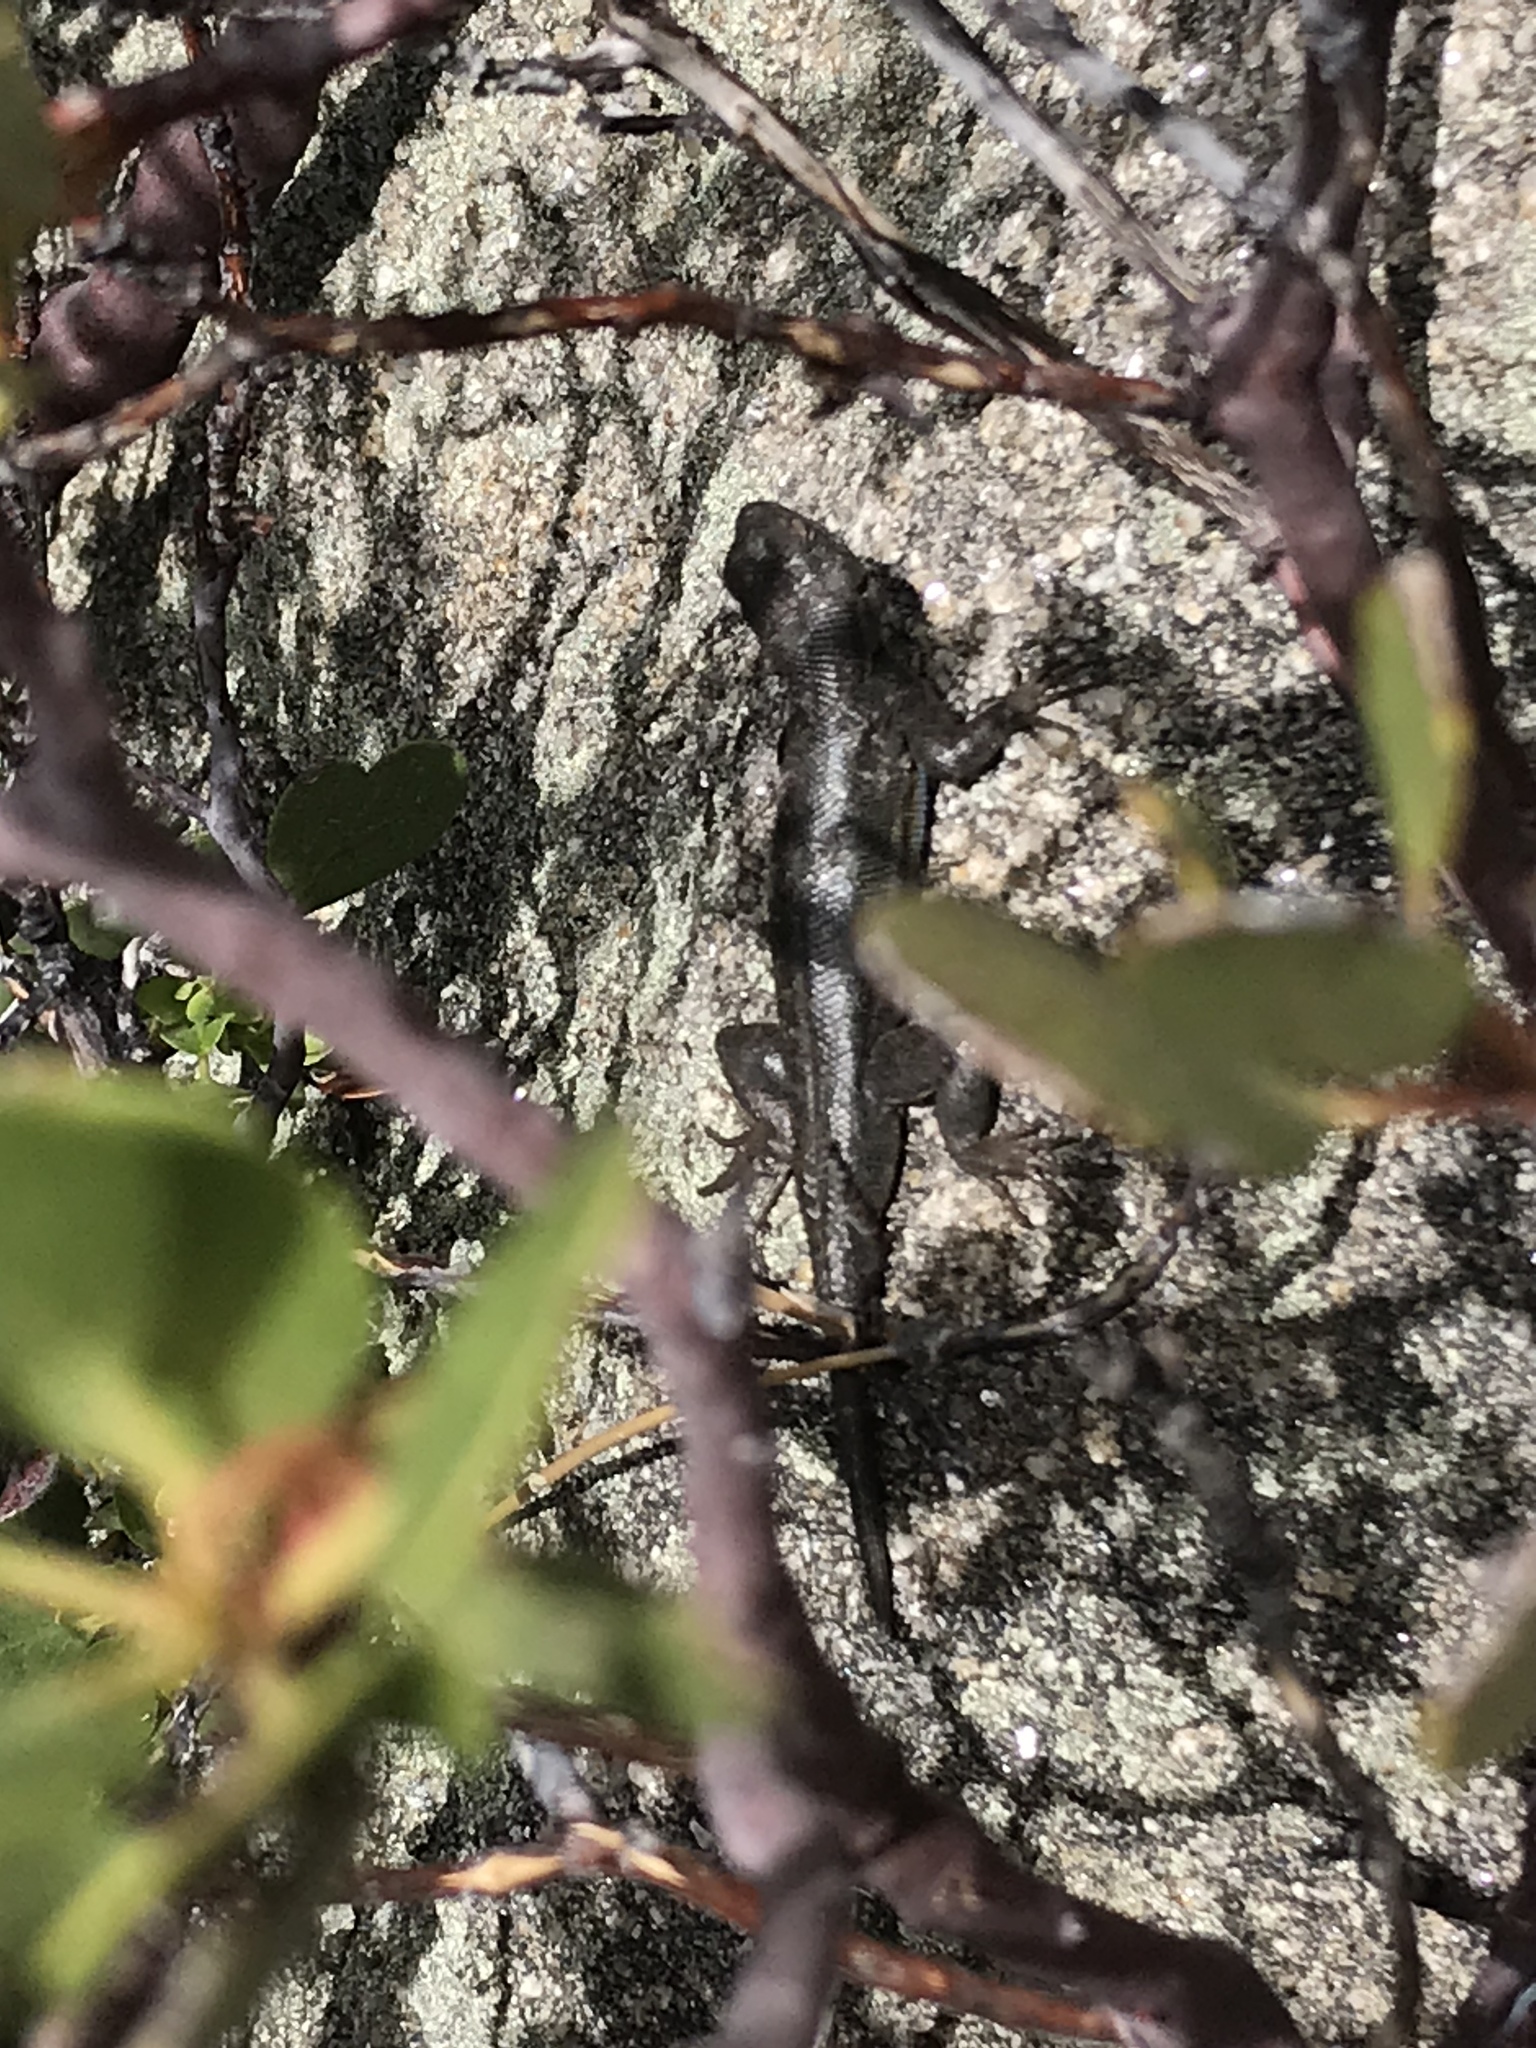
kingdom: Animalia
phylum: Chordata
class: Squamata
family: Phrynosomatidae
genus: Sceloporus
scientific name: Sceloporus graciosus
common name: Sagebrush lizard
